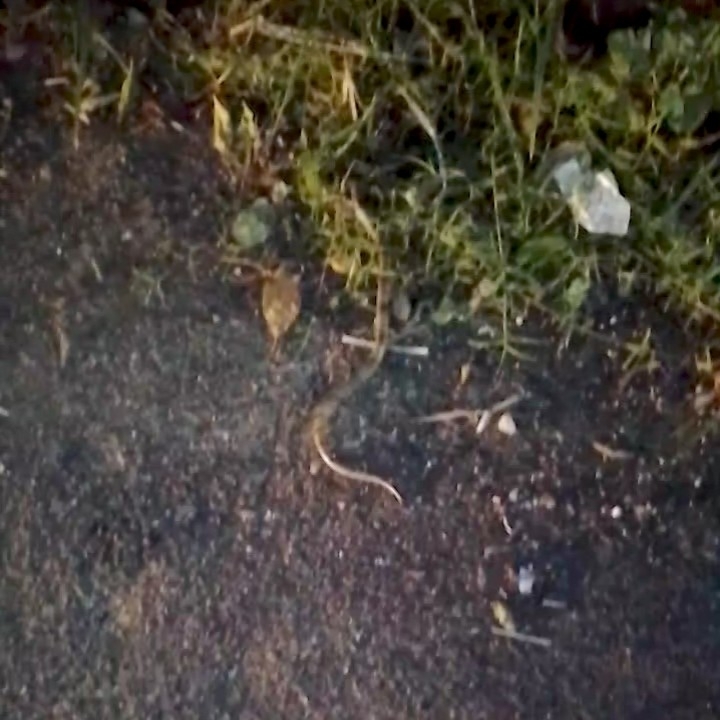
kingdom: Animalia
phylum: Chordata
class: Squamata
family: Colubridae
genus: Oligodon
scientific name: Oligodon arnensis
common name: Banded kukri
